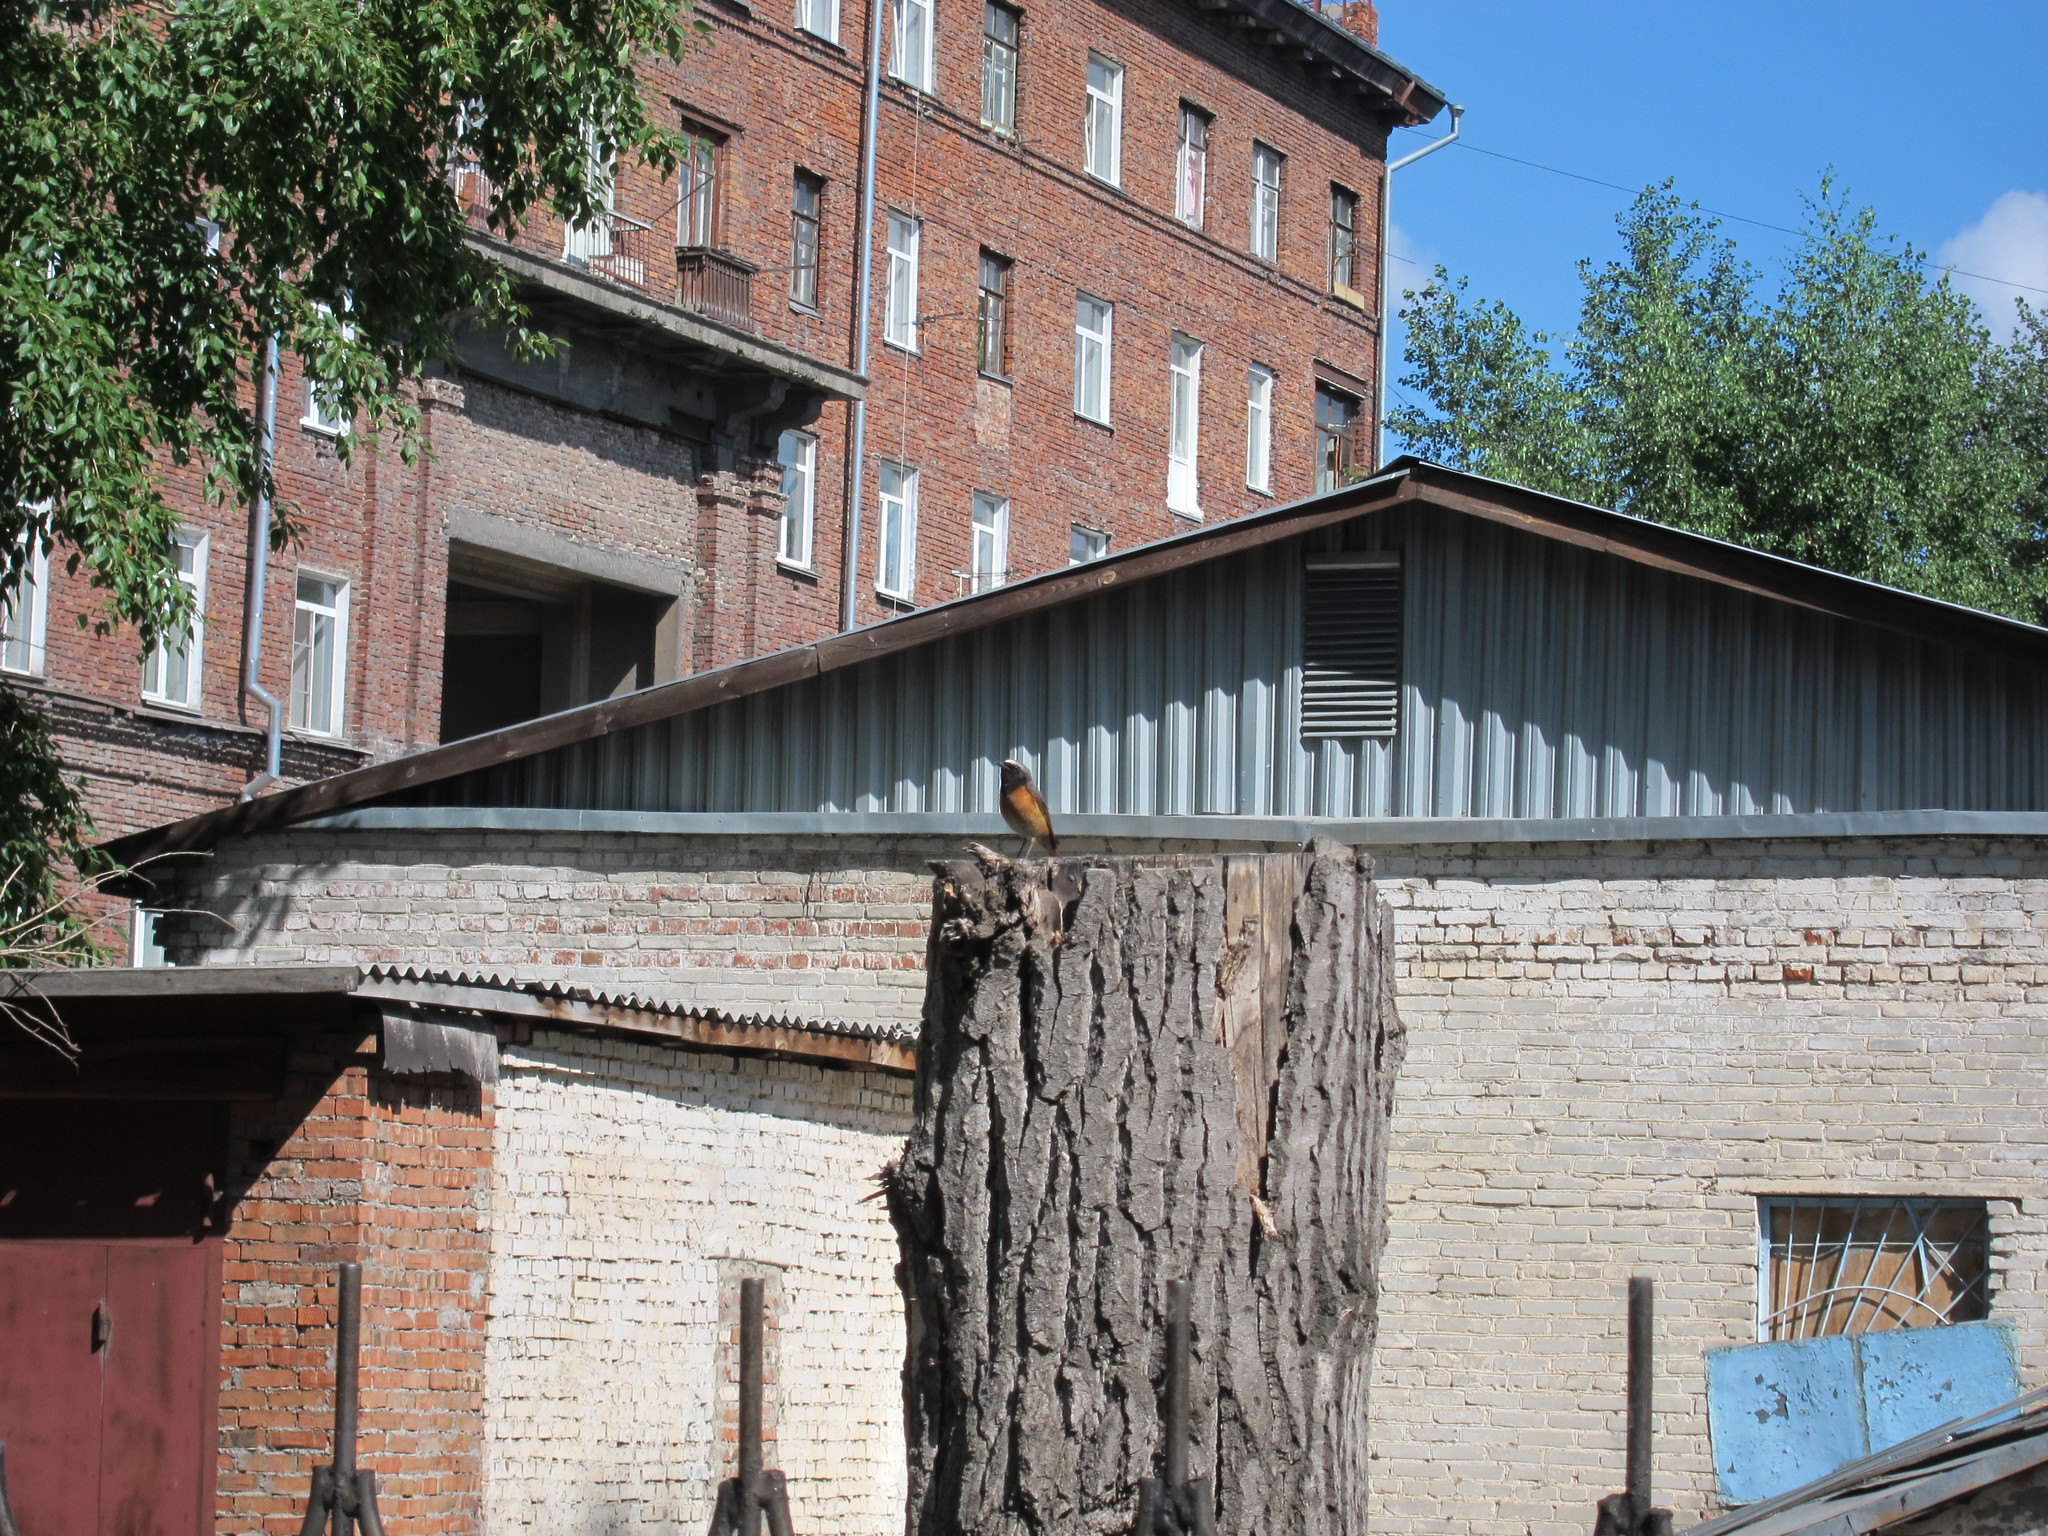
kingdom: Animalia
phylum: Chordata
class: Aves
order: Passeriformes
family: Muscicapidae
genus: Phoenicurus
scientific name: Phoenicurus phoenicurus
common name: Common redstart
